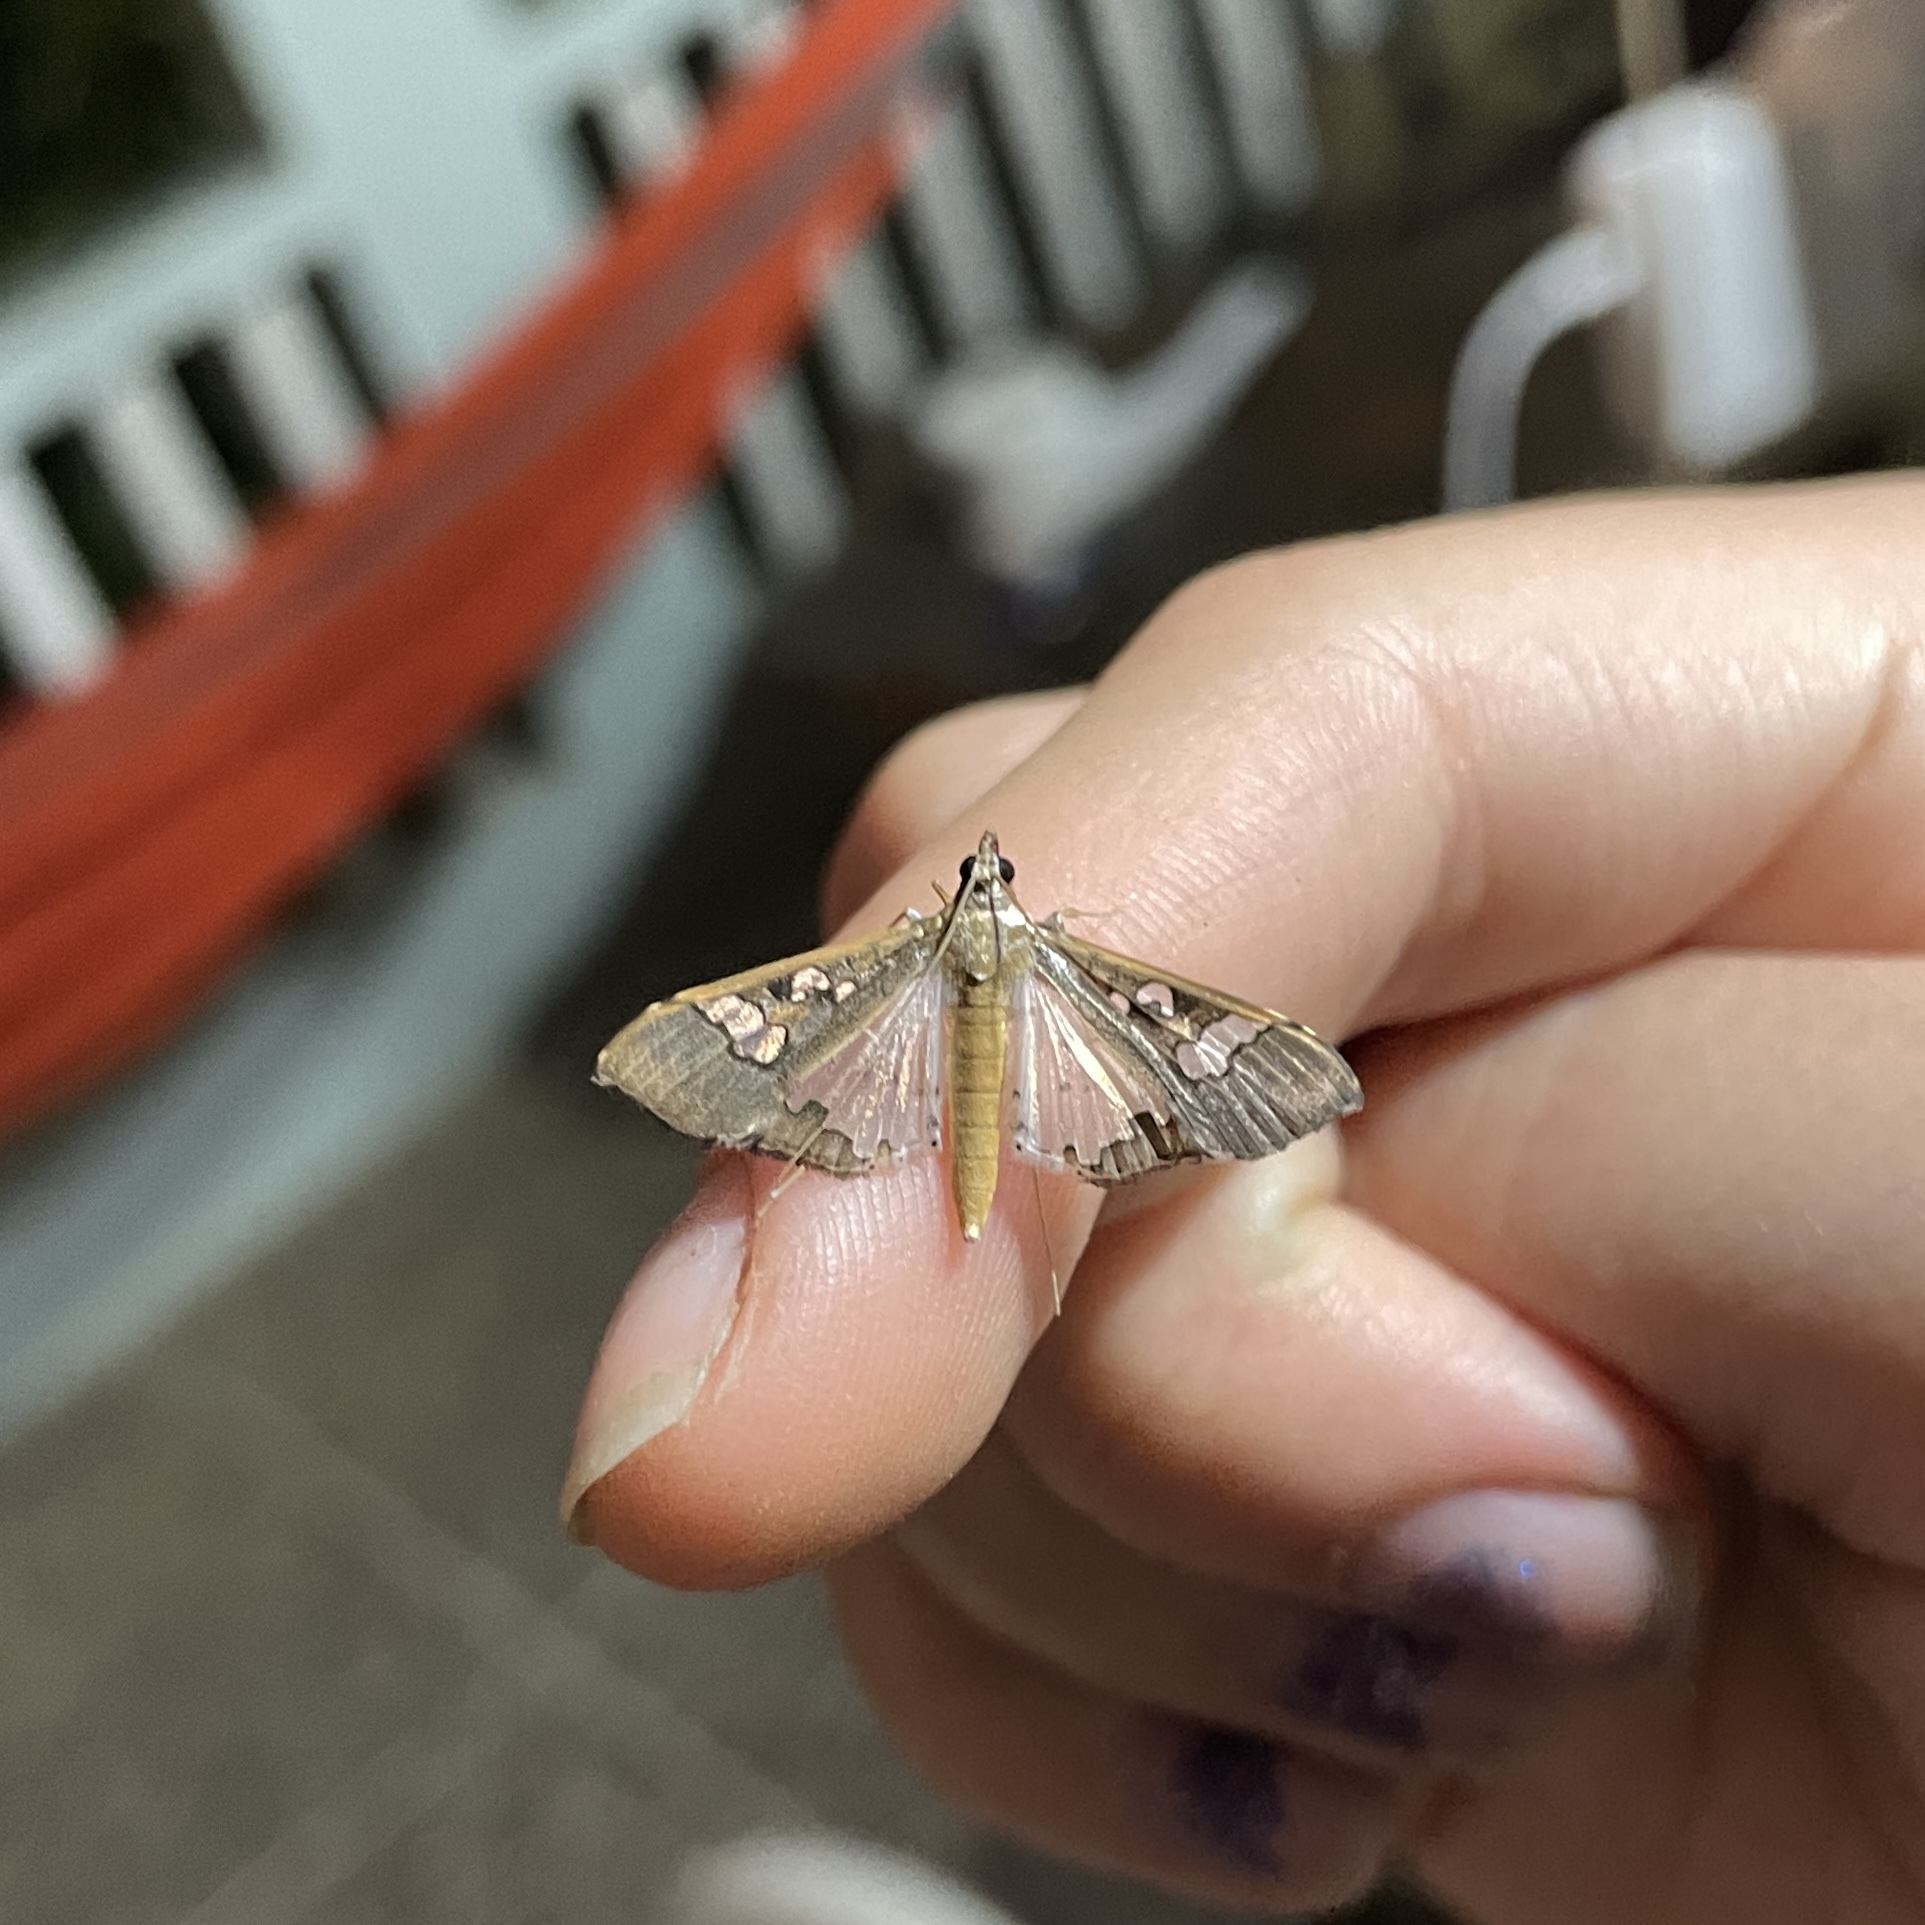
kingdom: Animalia
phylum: Arthropoda
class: Insecta
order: Lepidoptera
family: Crambidae
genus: Maruca
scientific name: Maruca vitrata
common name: Maruca pod borer
